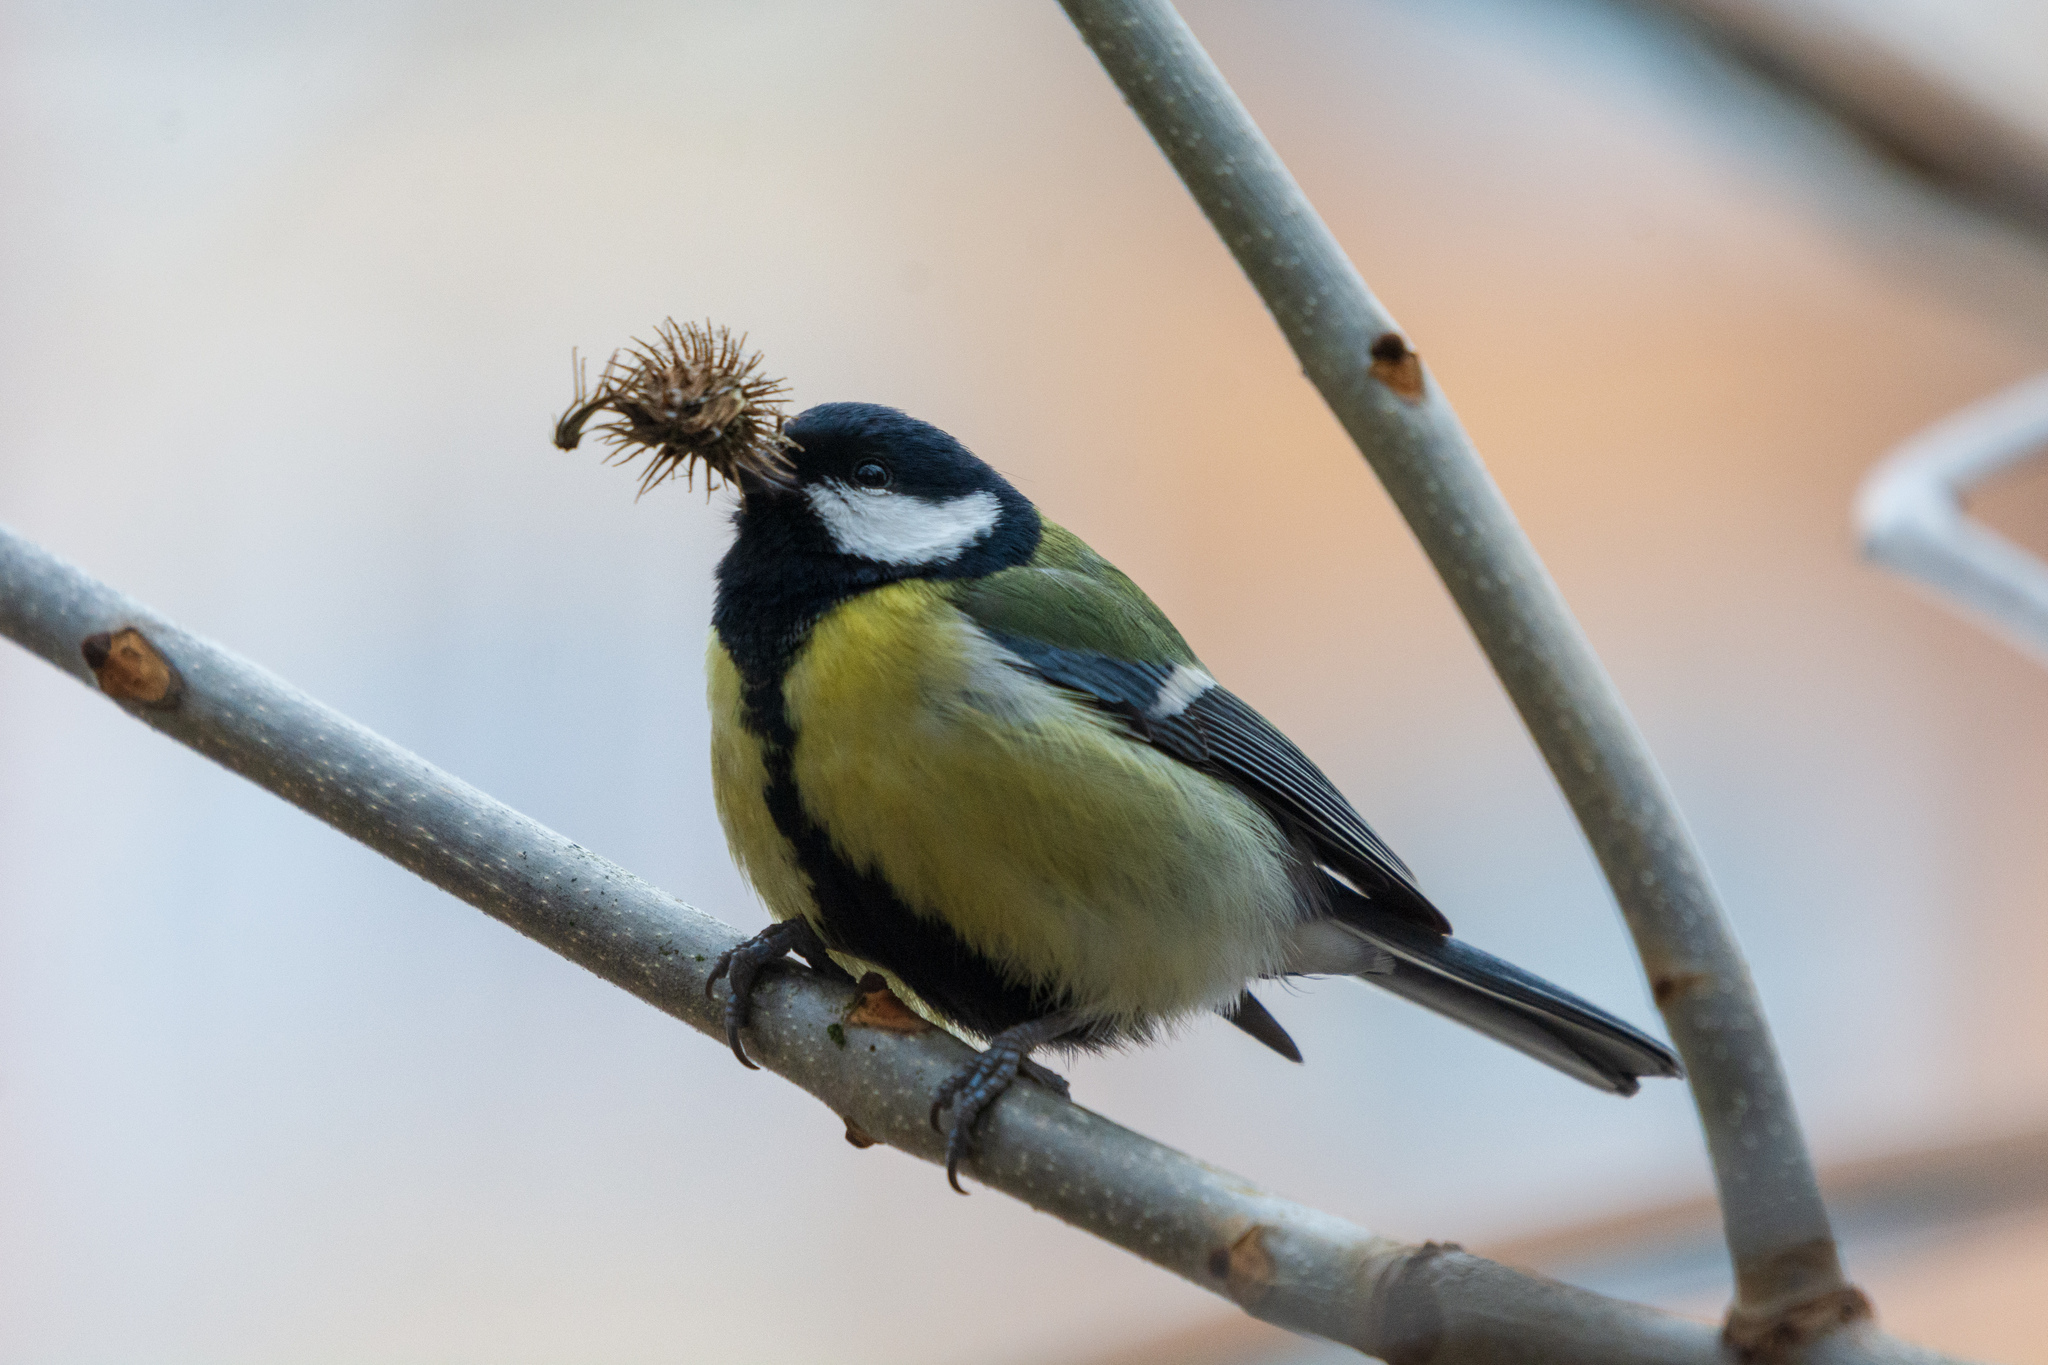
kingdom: Animalia
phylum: Chordata
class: Aves
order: Passeriformes
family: Paridae
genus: Parus
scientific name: Parus major
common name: Great tit
